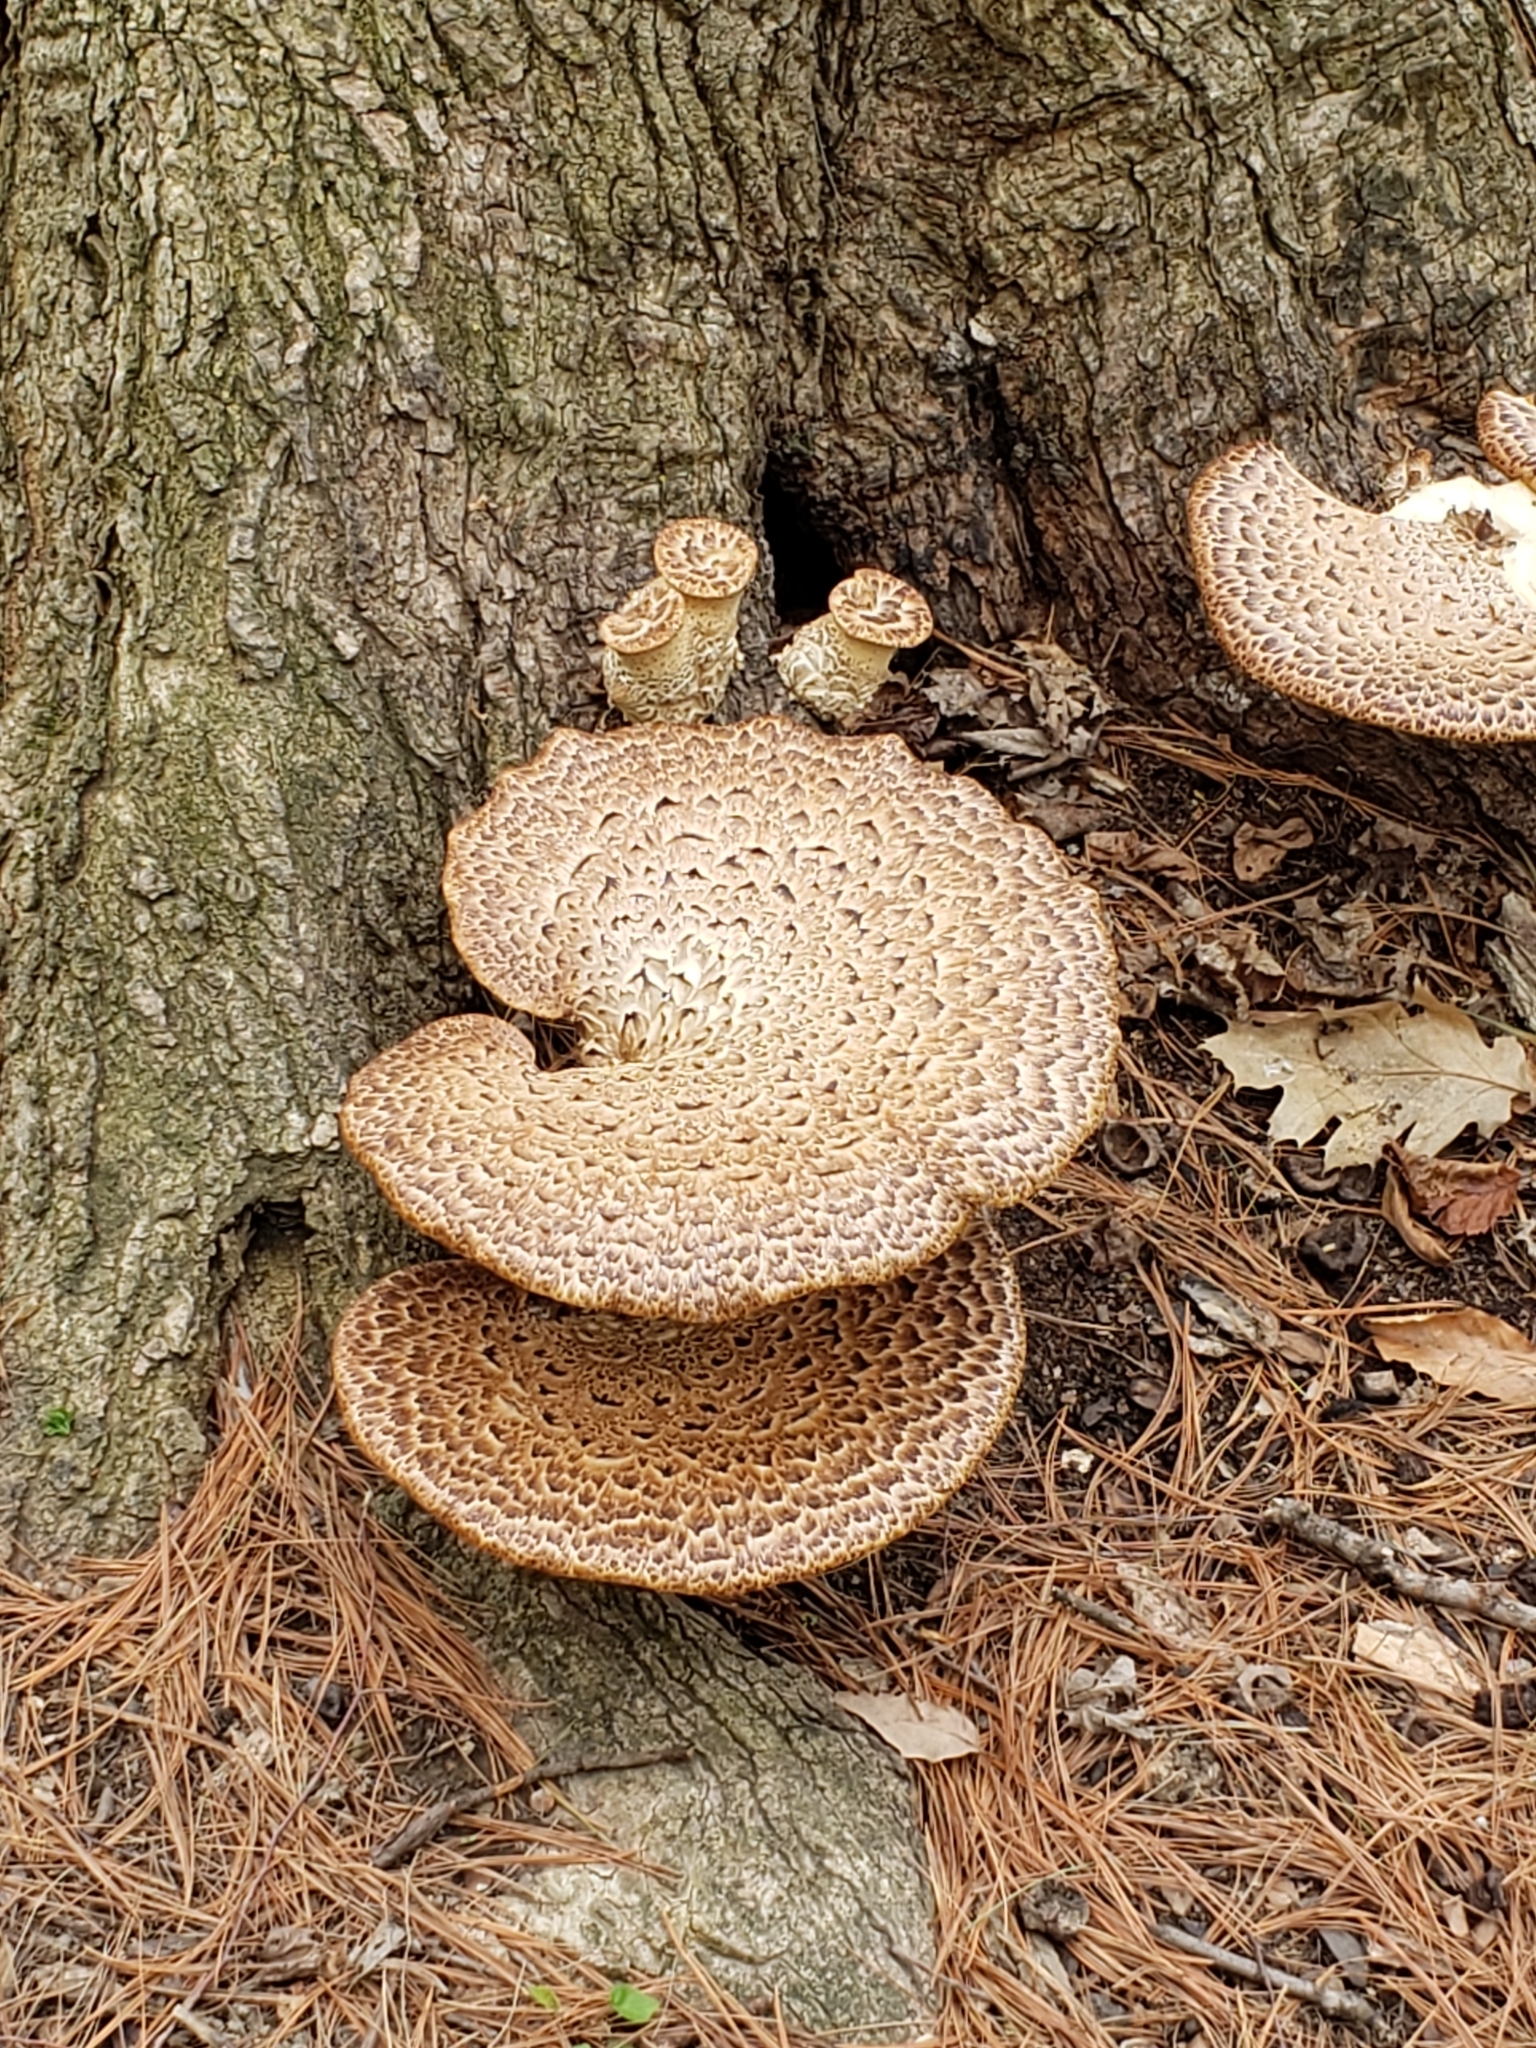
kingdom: Fungi
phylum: Basidiomycota
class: Agaricomycetes
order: Polyporales
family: Polyporaceae
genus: Cerioporus
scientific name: Cerioporus squamosus
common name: Dryad's saddle
